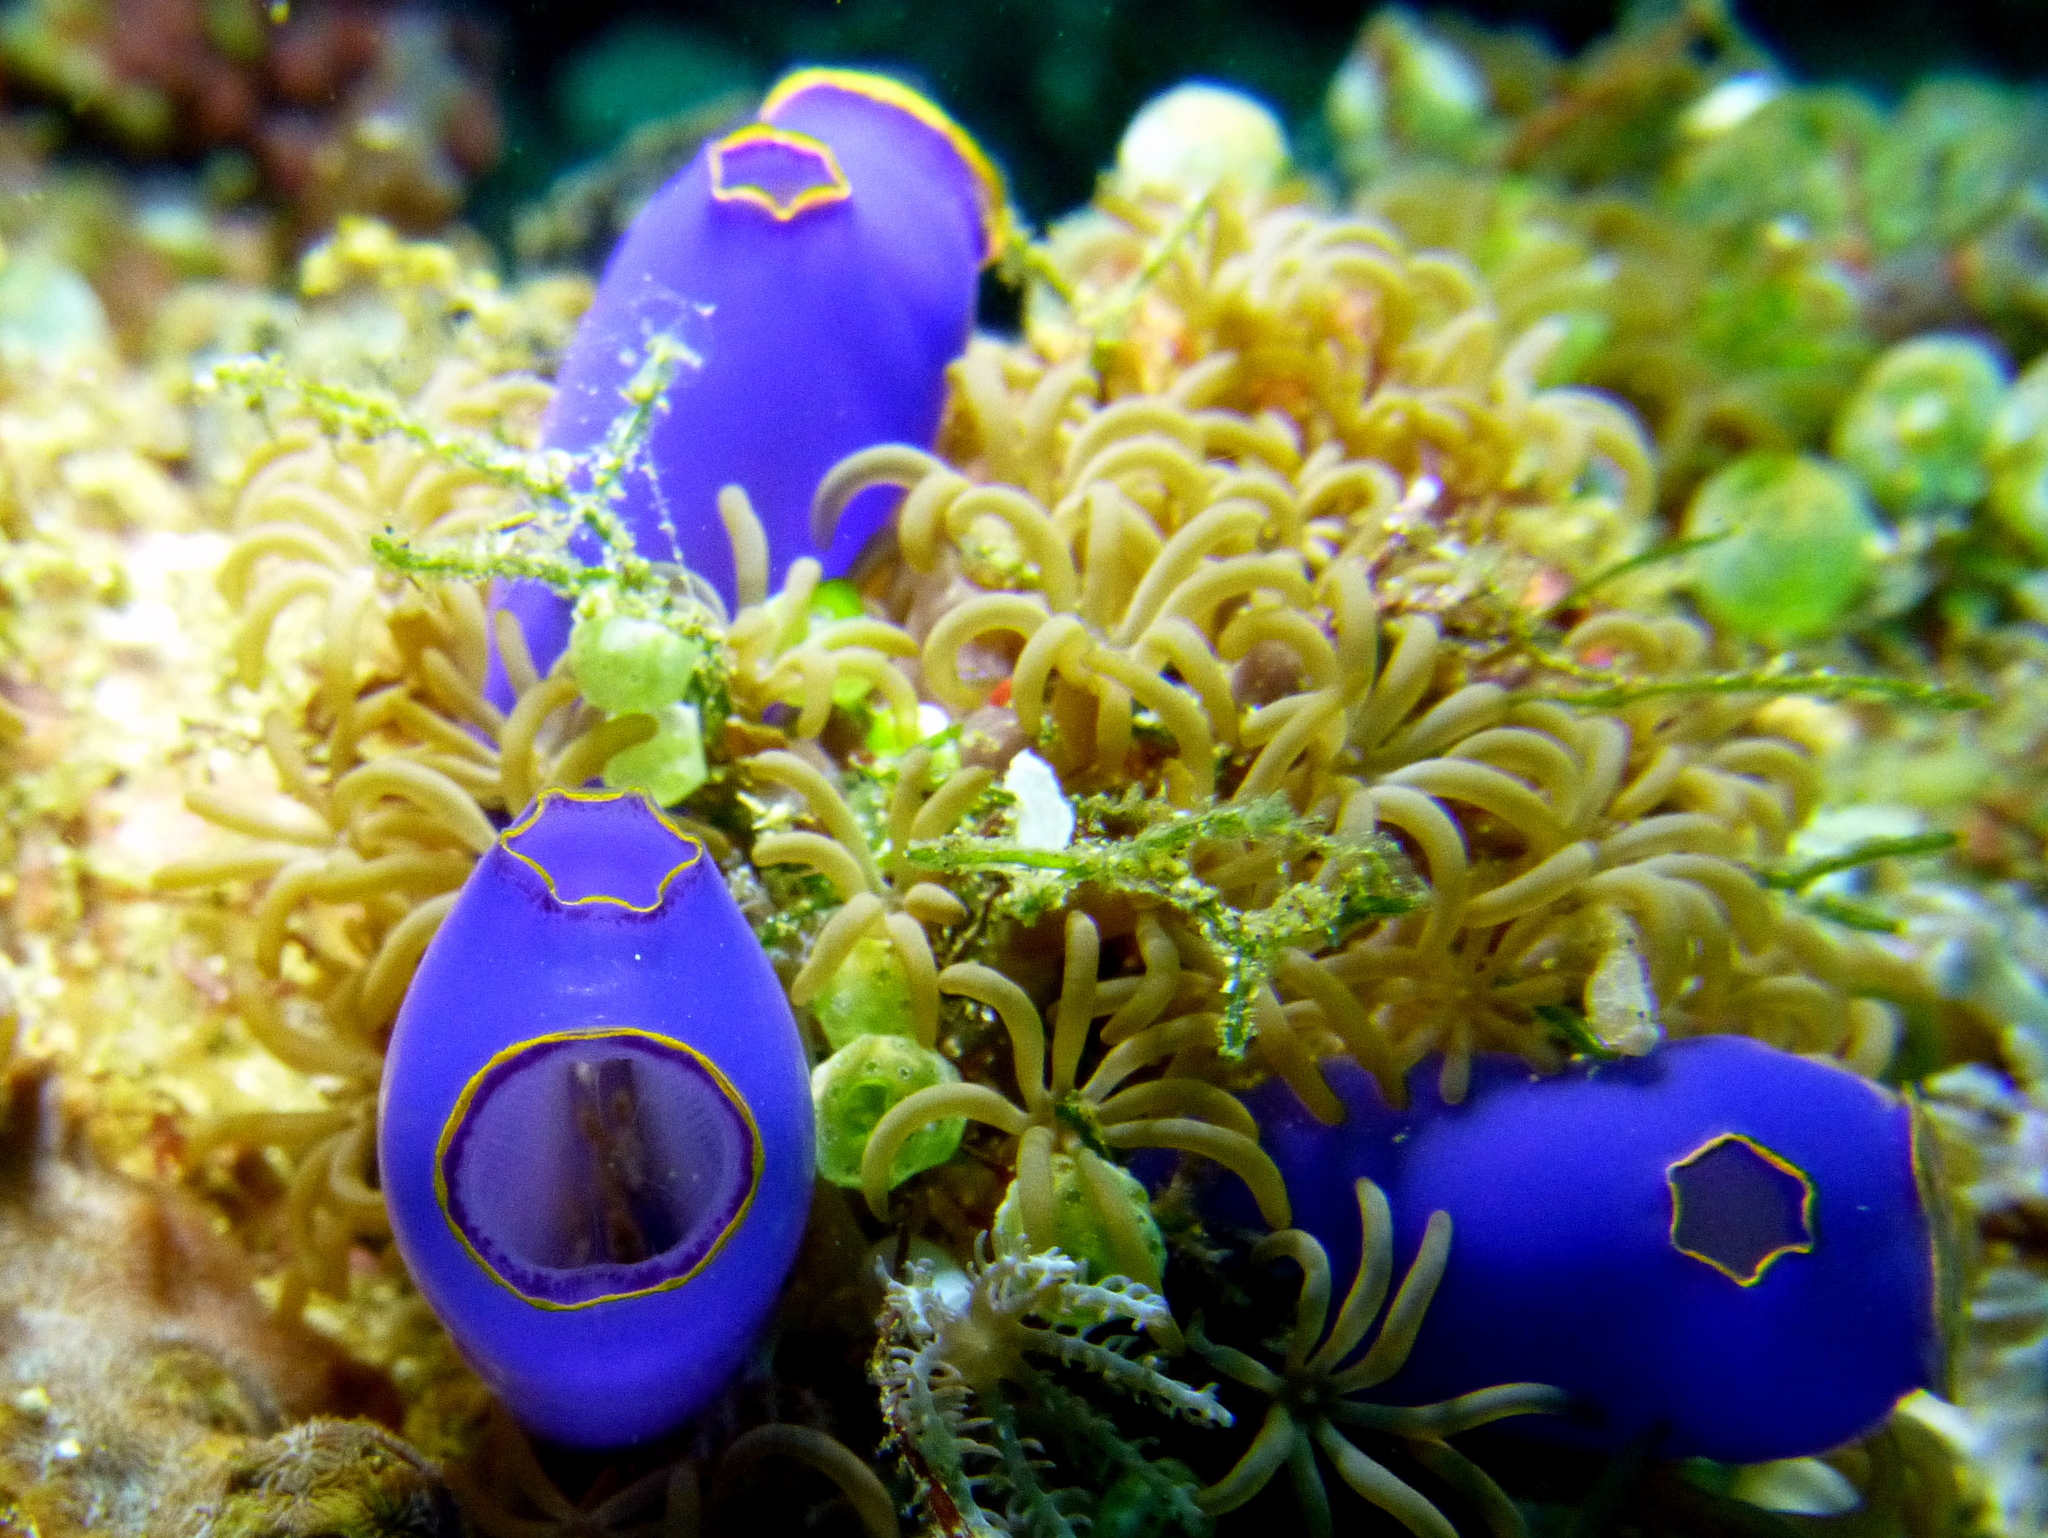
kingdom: Animalia
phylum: Chordata
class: Ascidiacea
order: Aplousobranchia
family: Diazonidae
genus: Rhopalaea
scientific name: Rhopalaea fusca
